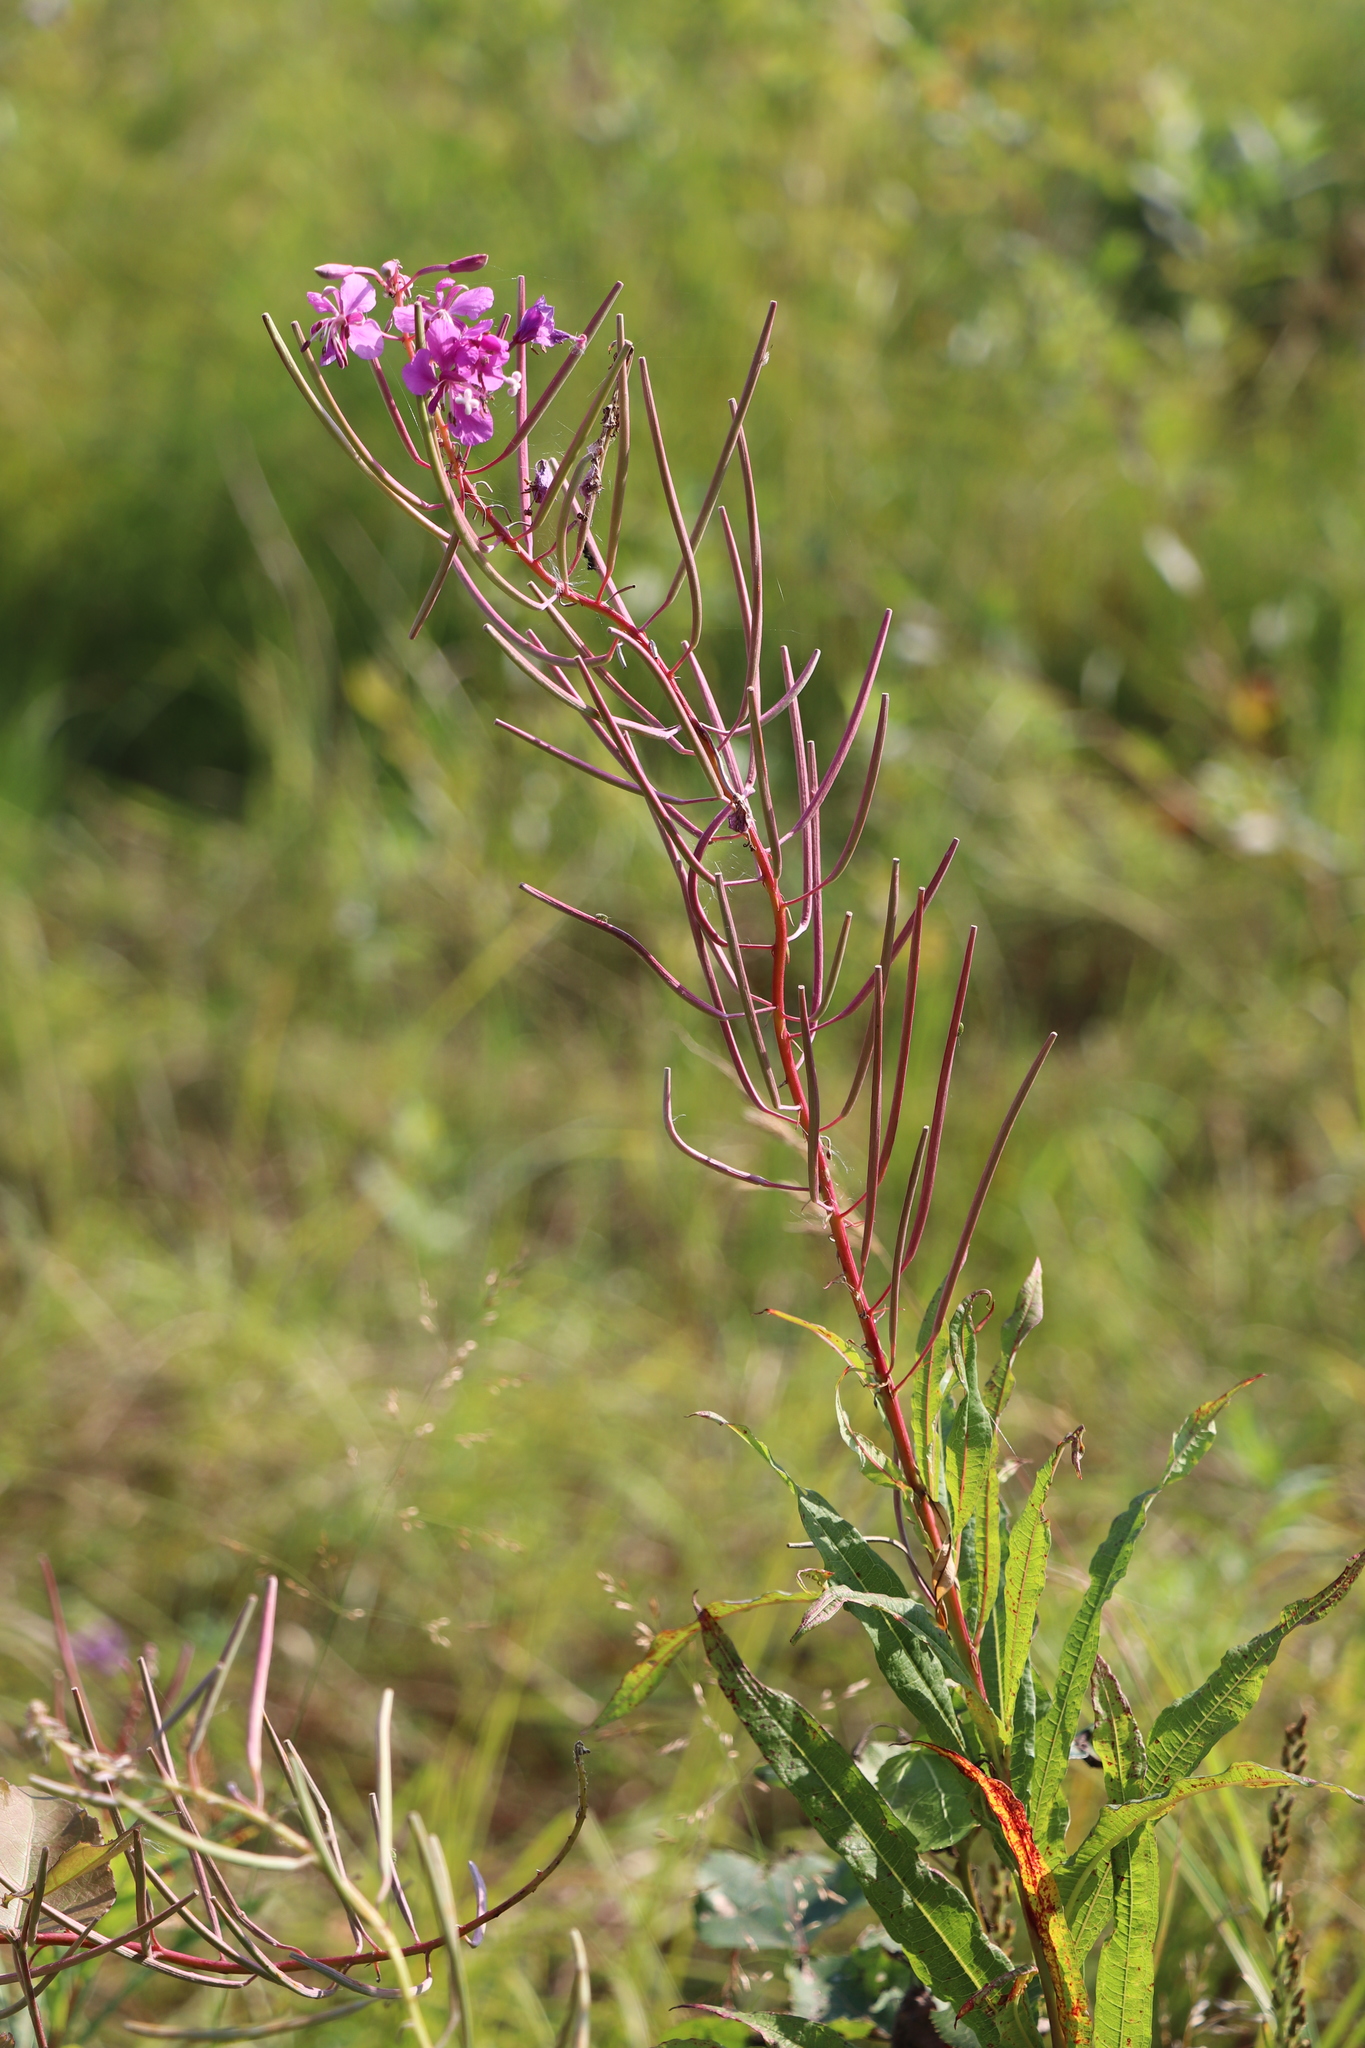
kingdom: Plantae
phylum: Tracheophyta
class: Magnoliopsida
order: Myrtales
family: Onagraceae
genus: Chamaenerion
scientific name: Chamaenerion angustifolium
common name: Fireweed
